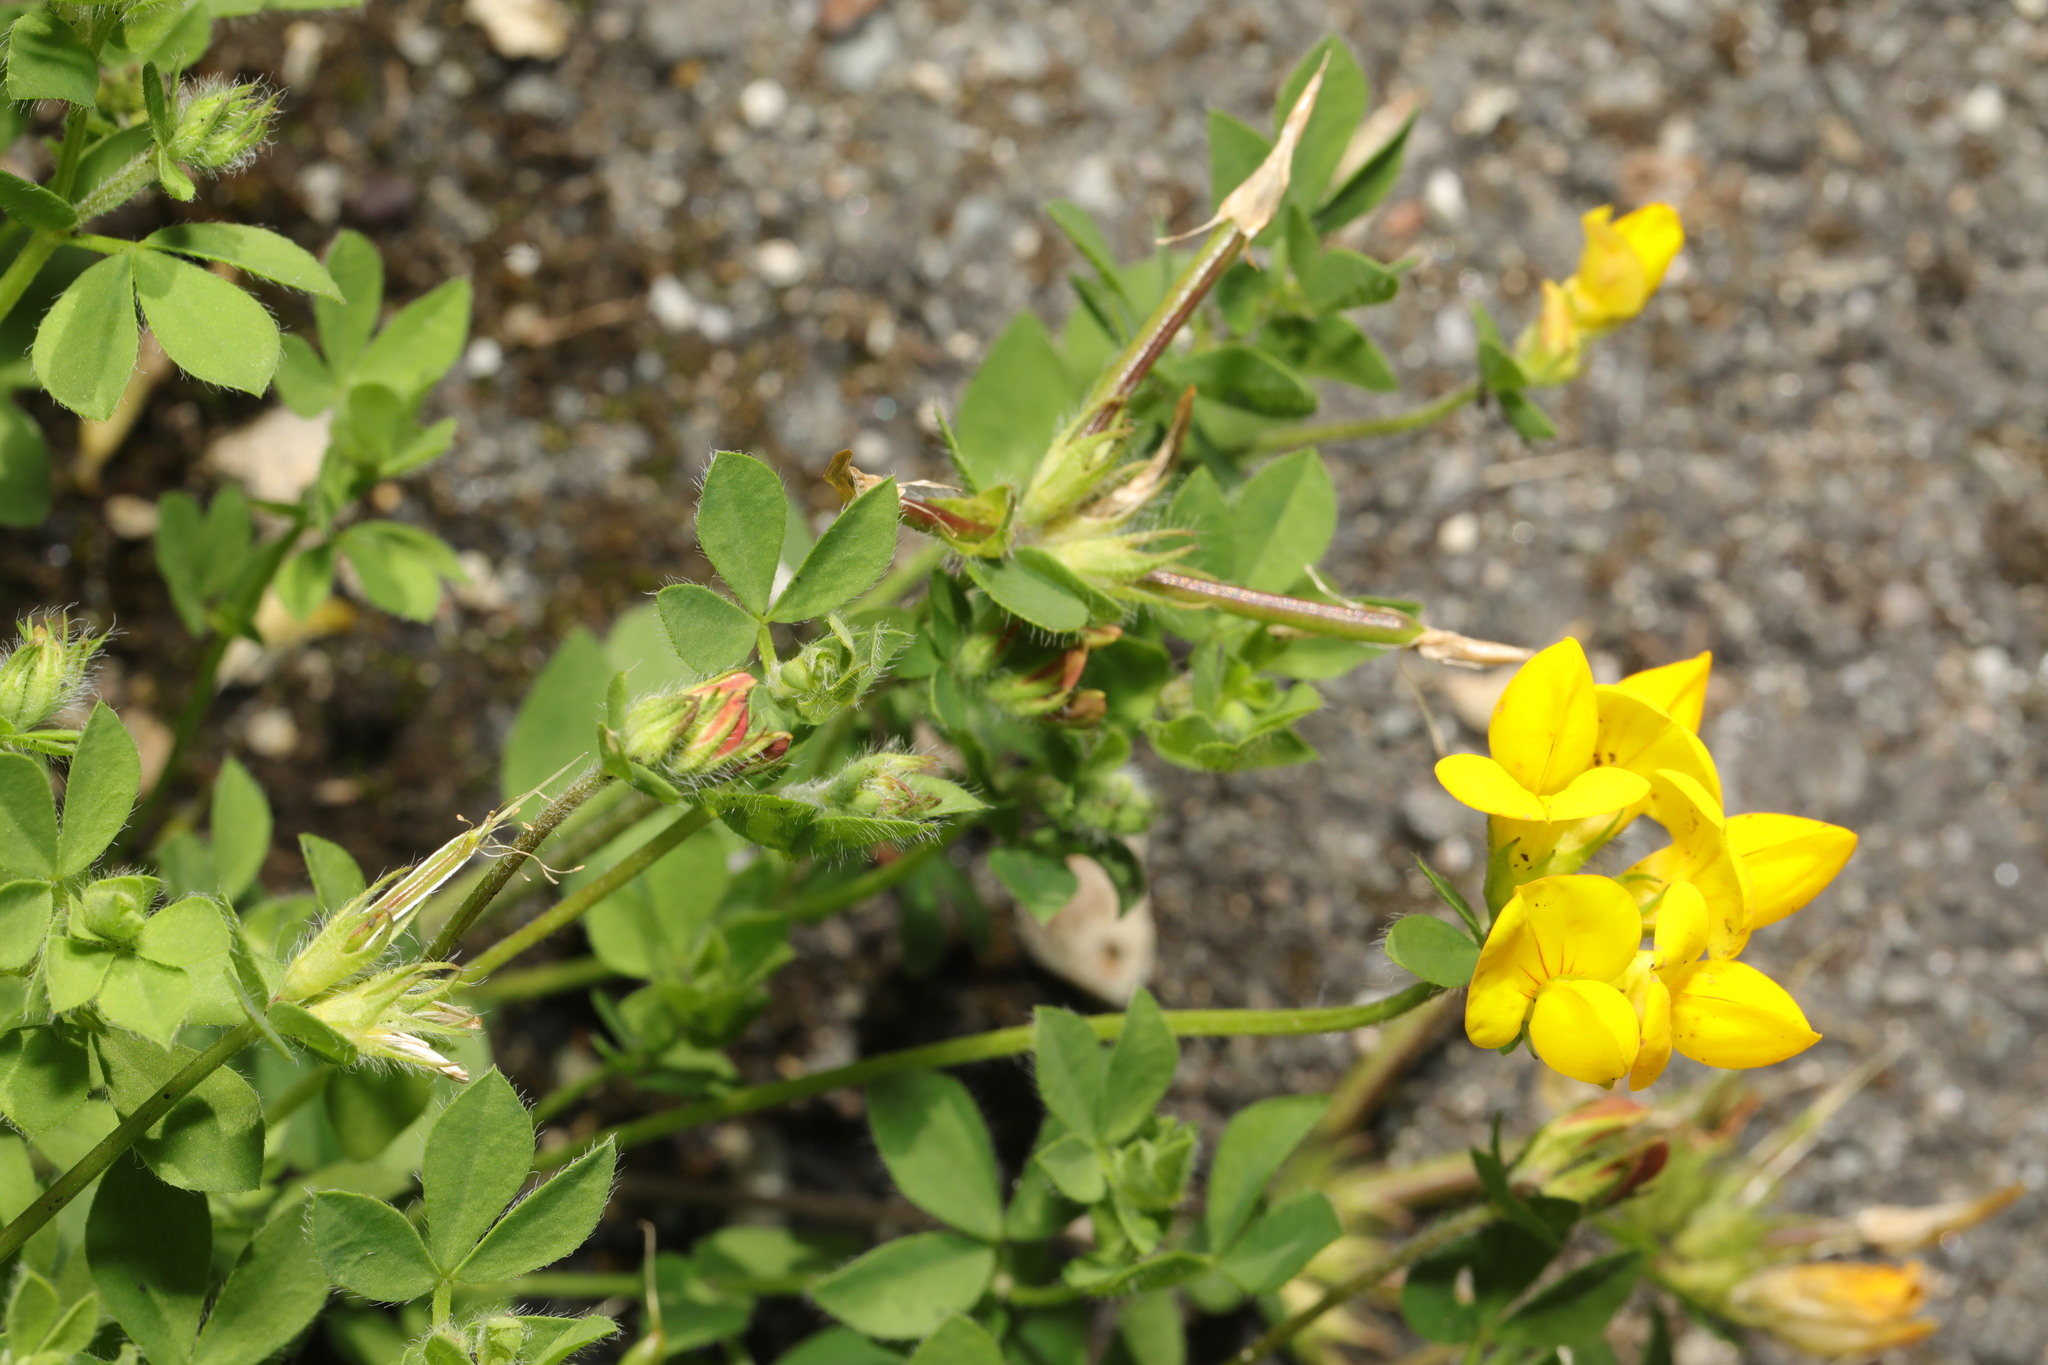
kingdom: Plantae
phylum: Tracheophyta
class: Magnoliopsida
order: Fabales
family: Fabaceae
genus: Lotus
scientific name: Lotus pedunculatus
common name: Greater birdsfoot-trefoil
